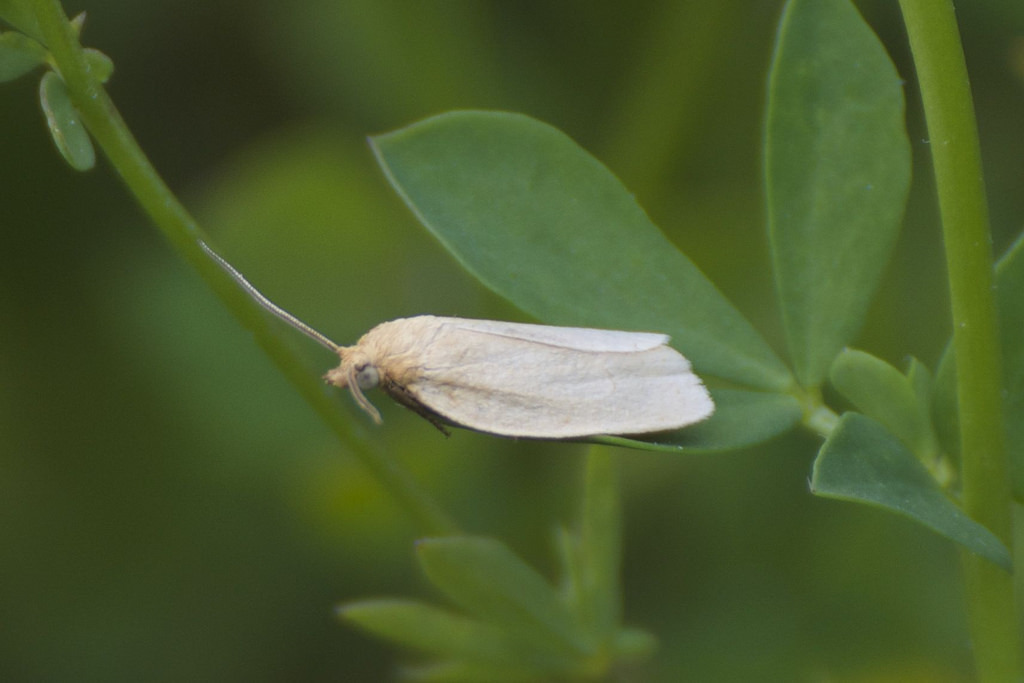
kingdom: Animalia
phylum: Arthropoda
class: Insecta
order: Lepidoptera
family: Tortricidae
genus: Clepsis
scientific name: Clepsis clemensiana
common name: Clemens' clepsis moth
